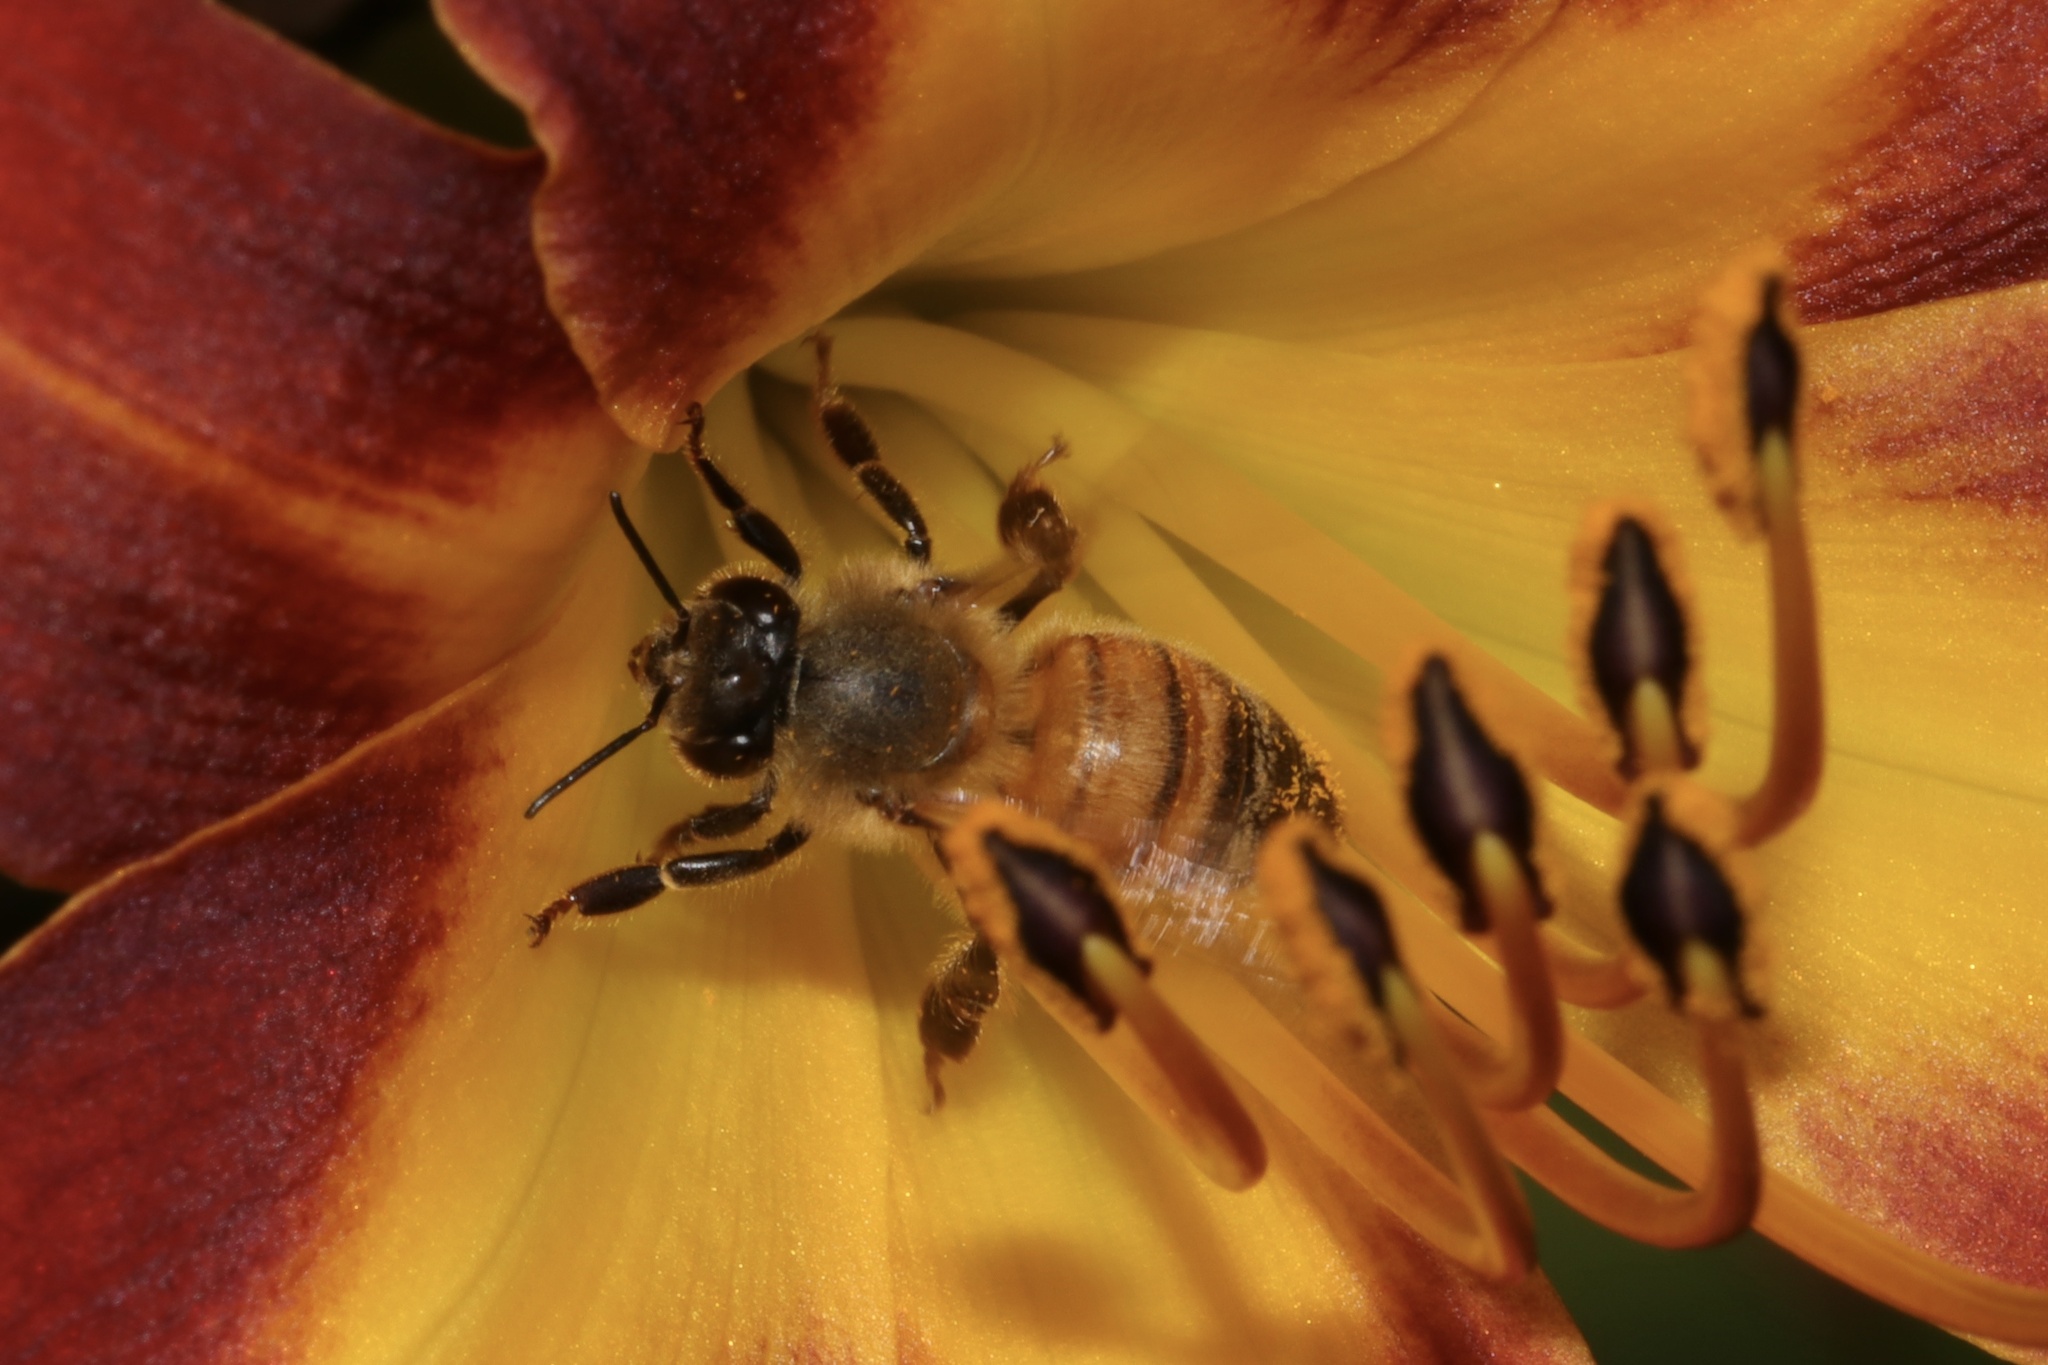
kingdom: Animalia
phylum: Arthropoda
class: Insecta
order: Hymenoptera
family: Apidae
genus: Apis
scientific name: Apis mellifera
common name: Honey bee
